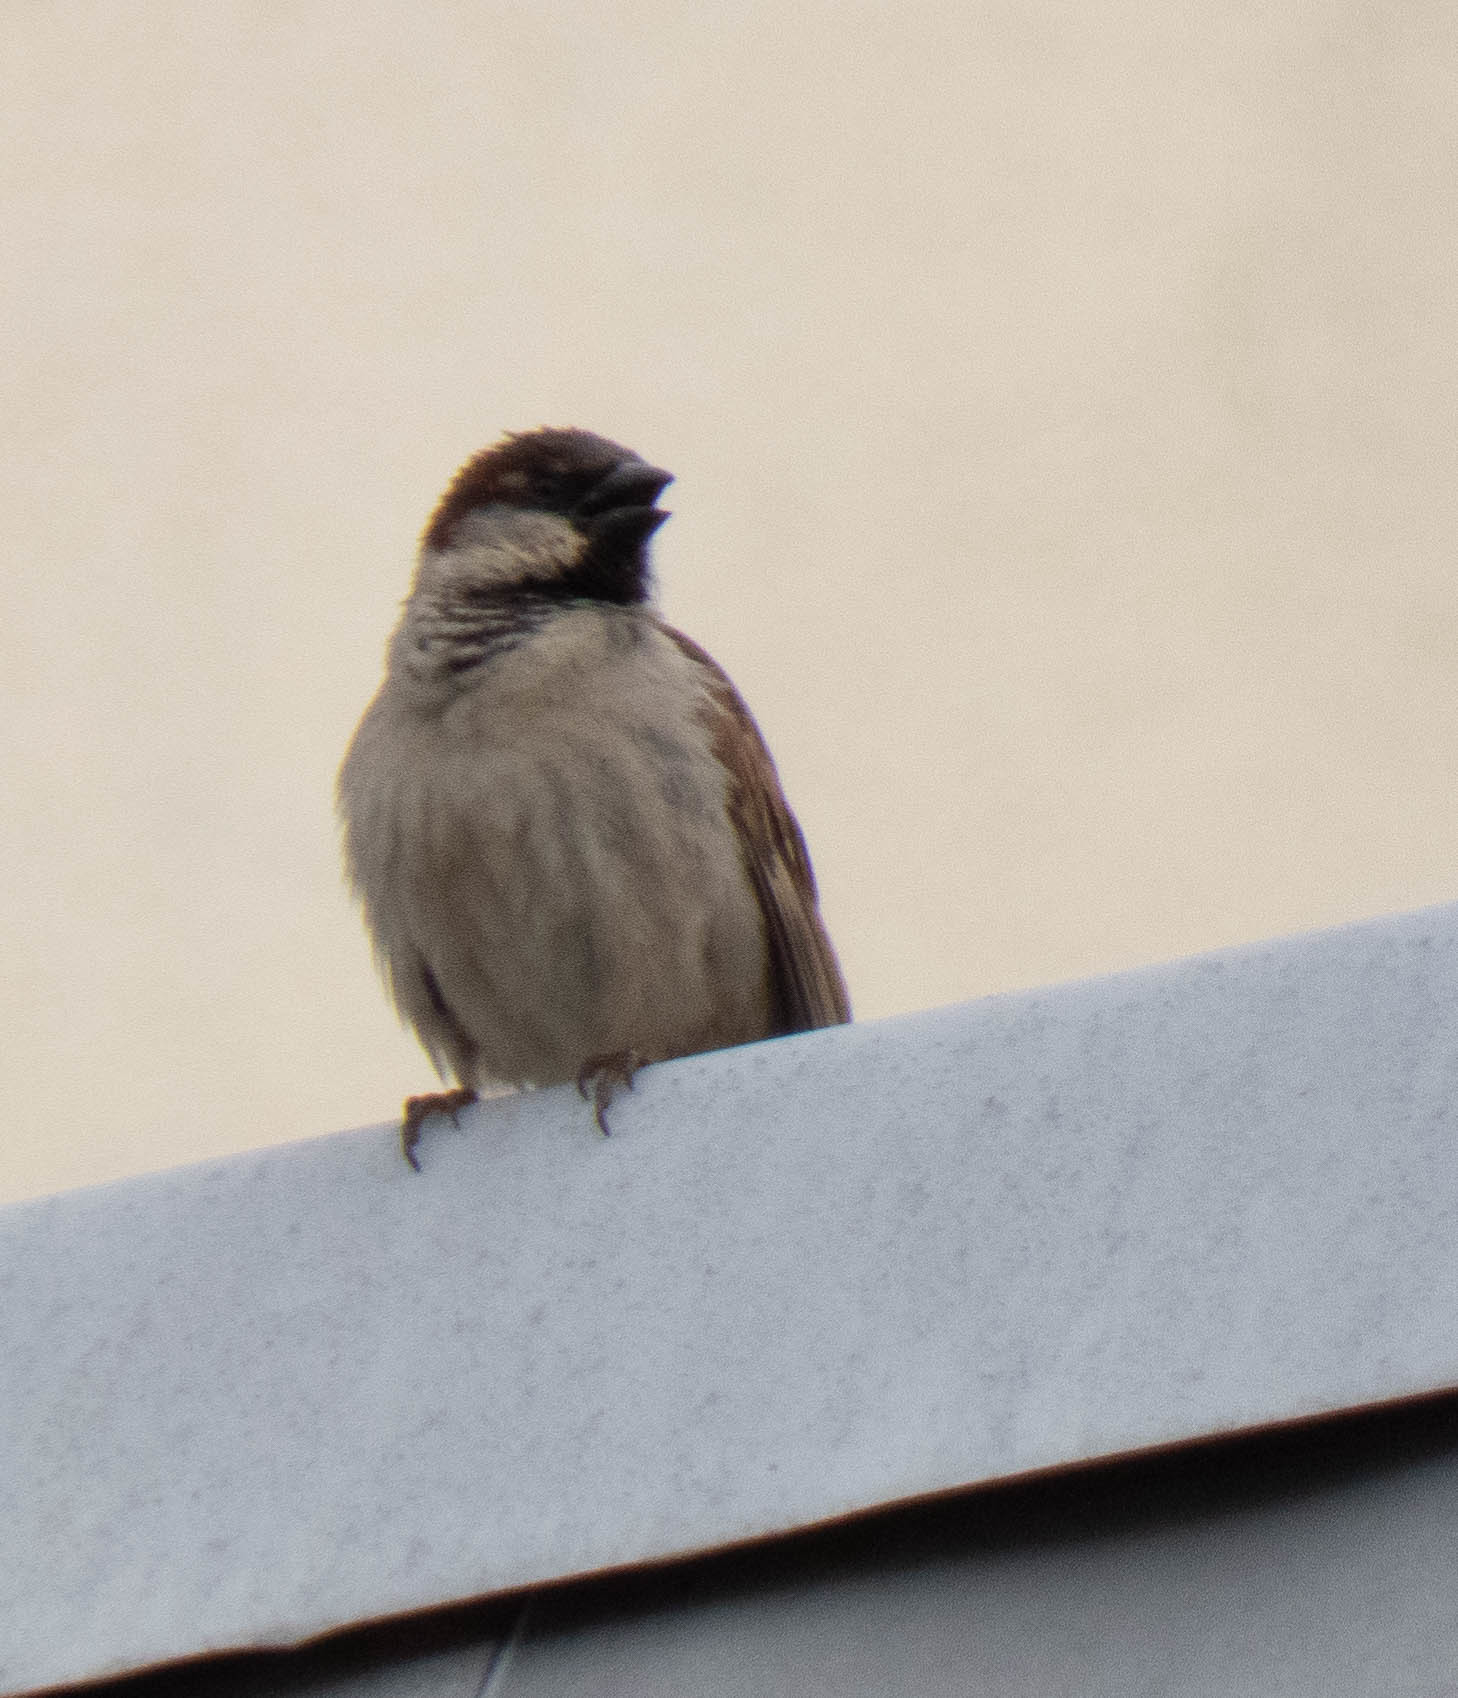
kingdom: Animalia
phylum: Chordata
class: Aves
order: Passeriformes
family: Passeridae
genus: Passer
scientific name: Passer domesticus
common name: House sparrow
